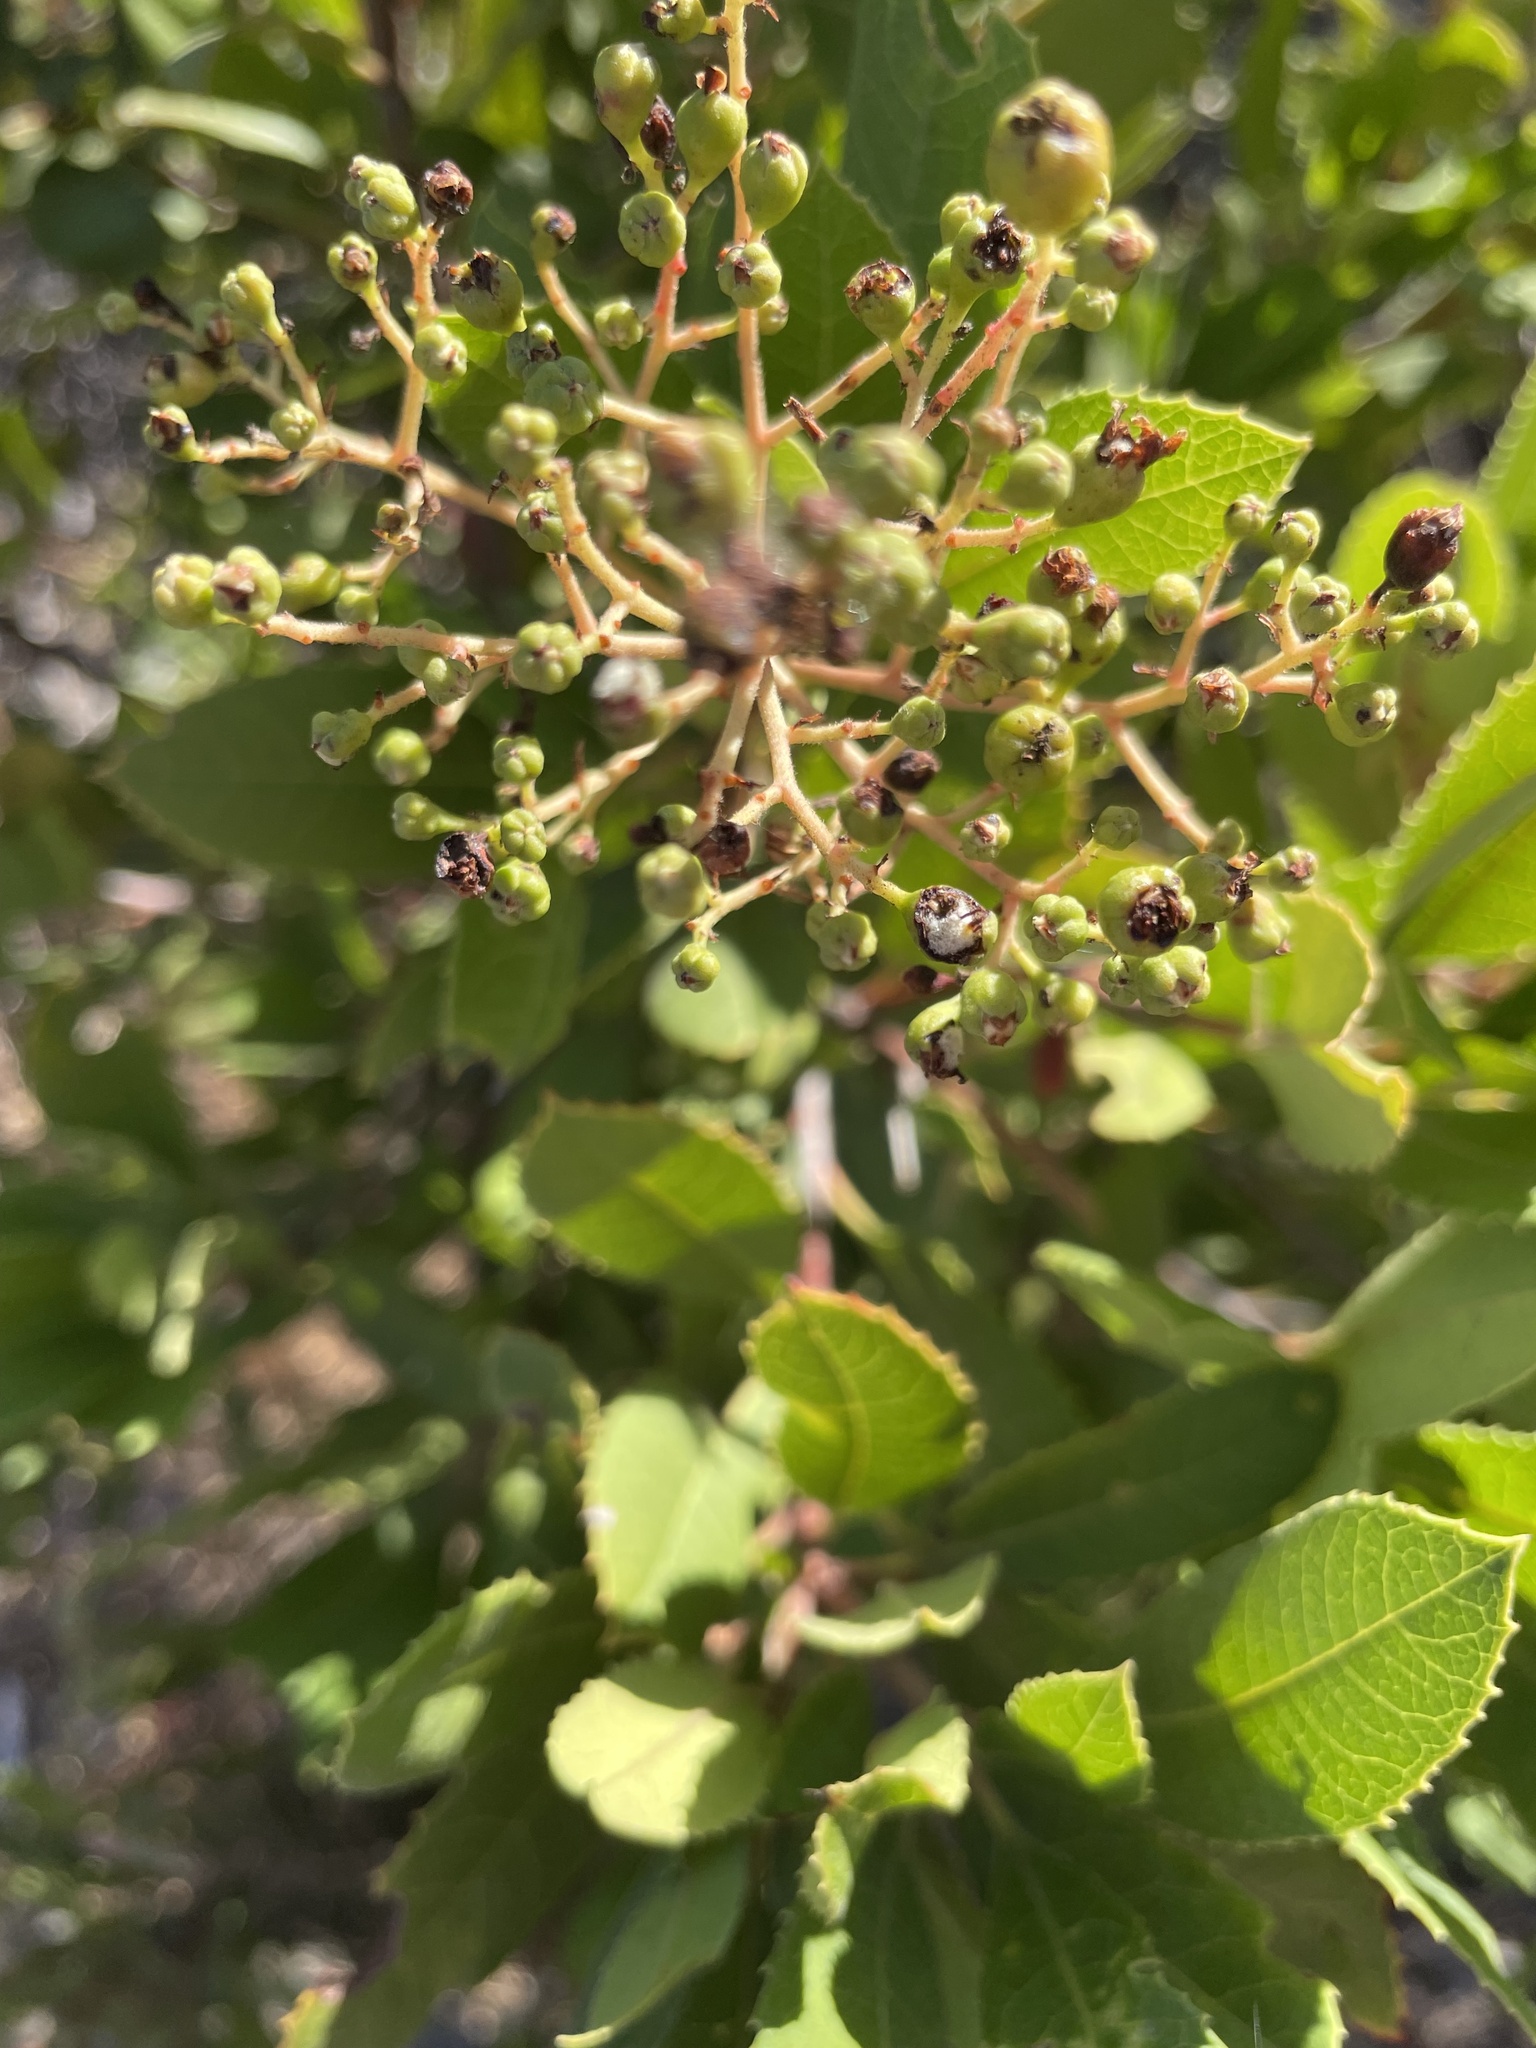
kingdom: Animalia
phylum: Arthropoda
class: Insecta
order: Diptera
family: Cecidomyiidae
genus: Asphondylia
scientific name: Asphondylia photiniae
